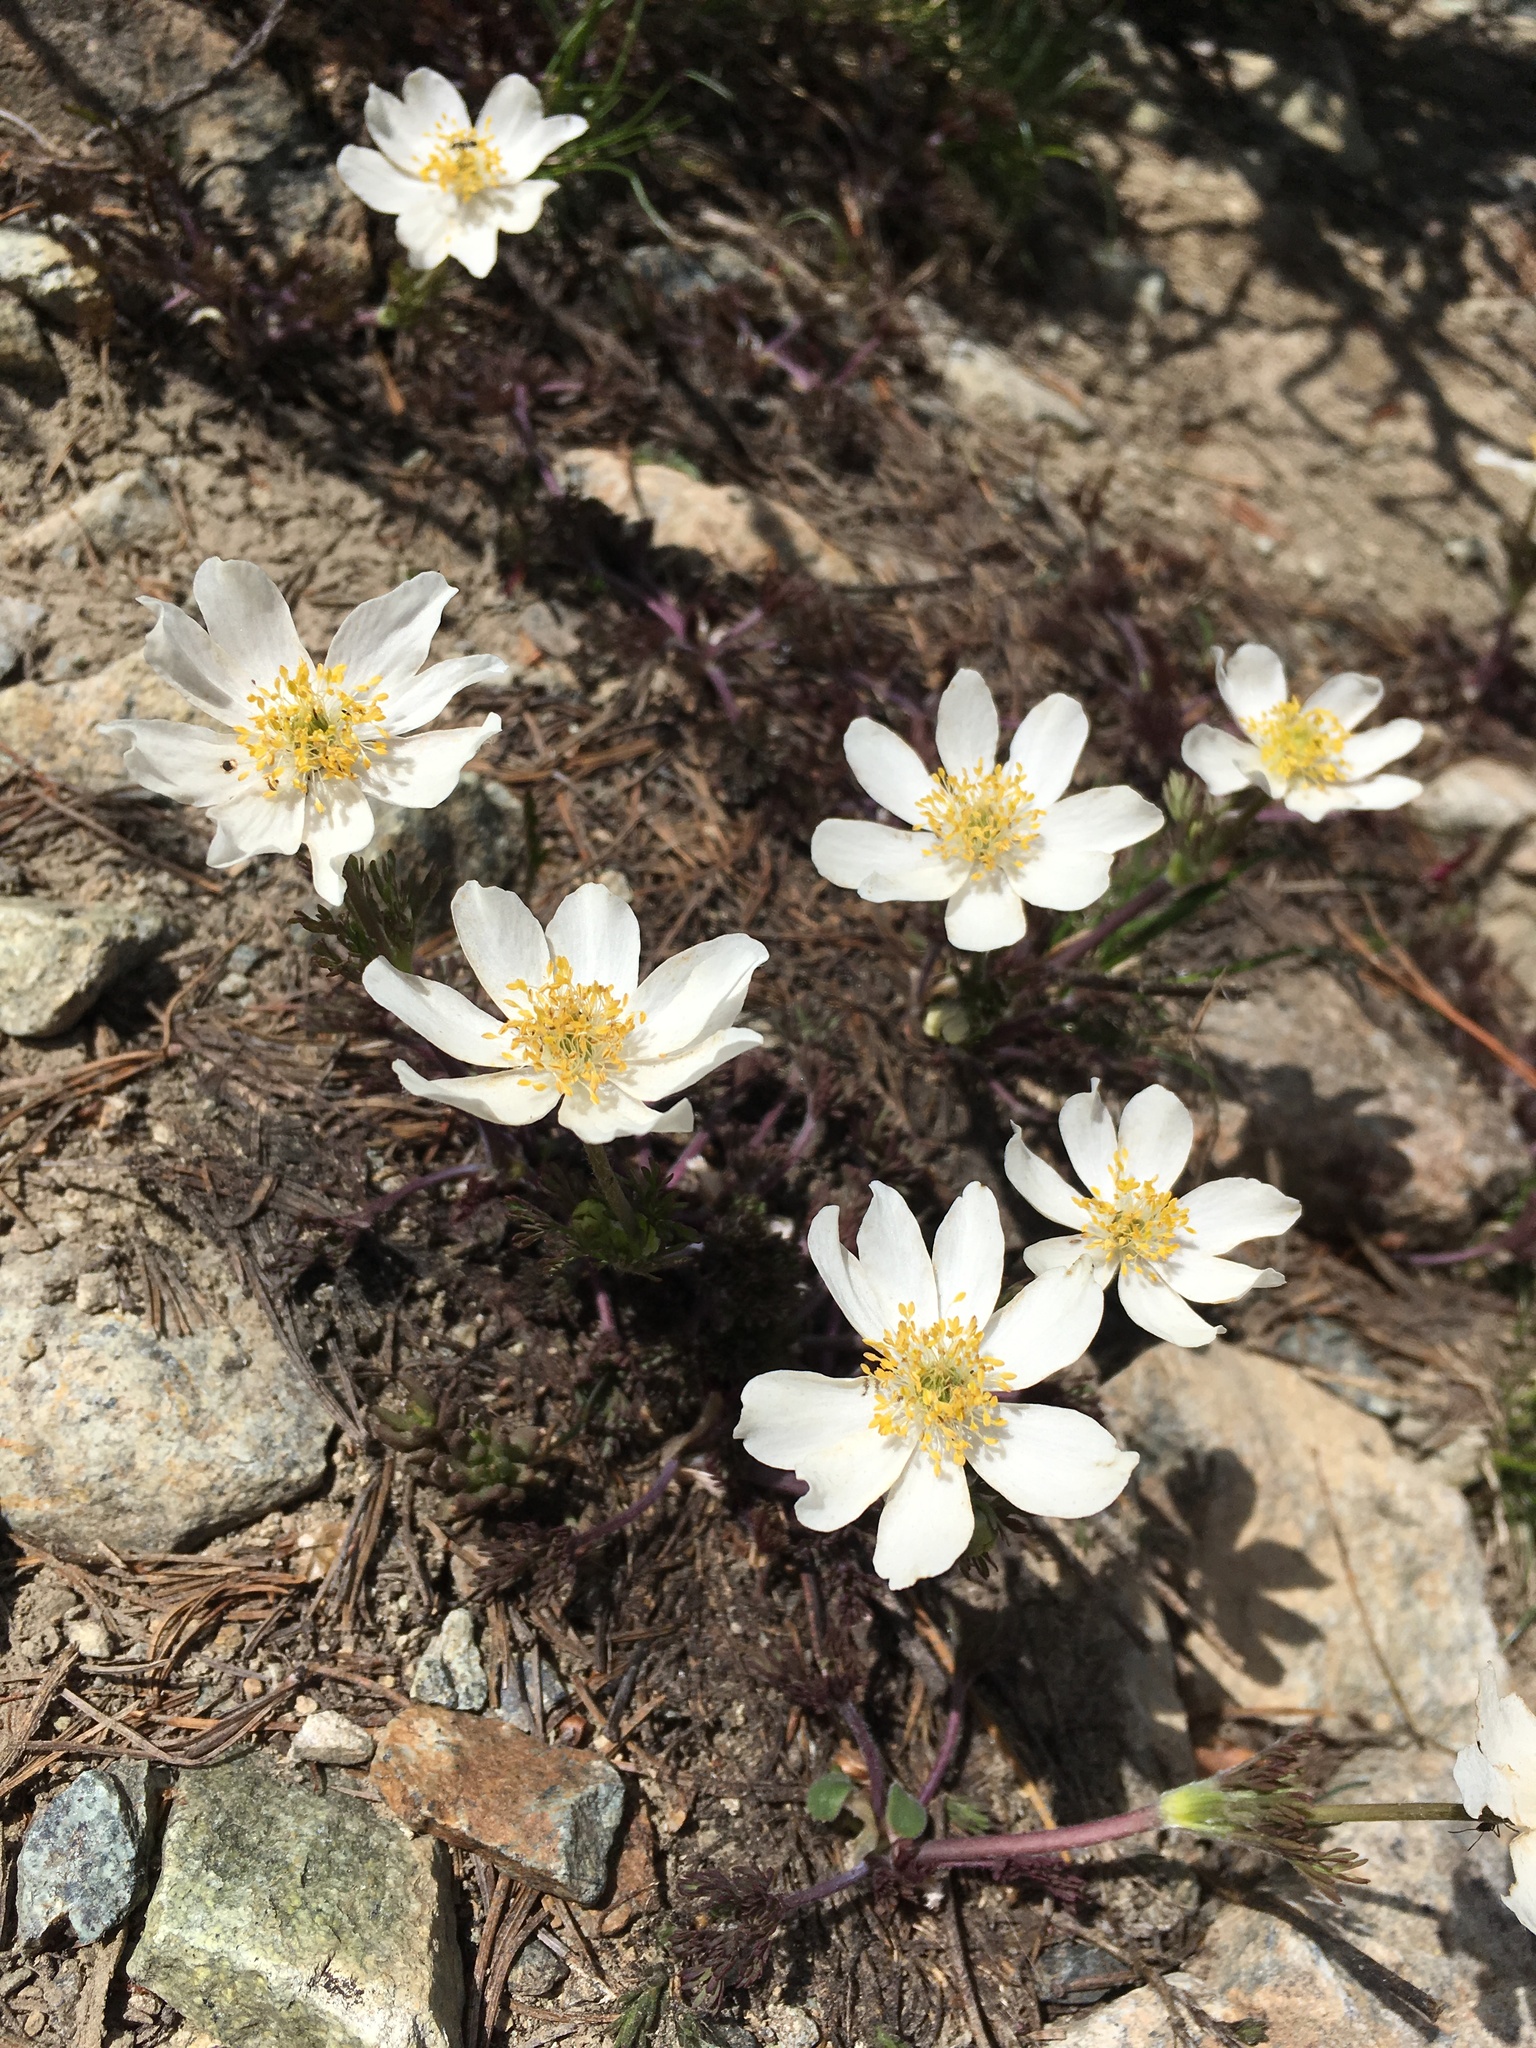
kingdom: Plantae
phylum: Tracheophyta
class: Magnoliopsida
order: Ranunculales
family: Ranunculaceae
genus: Anemone
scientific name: Anemone drummondii
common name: Drummond's anemone
